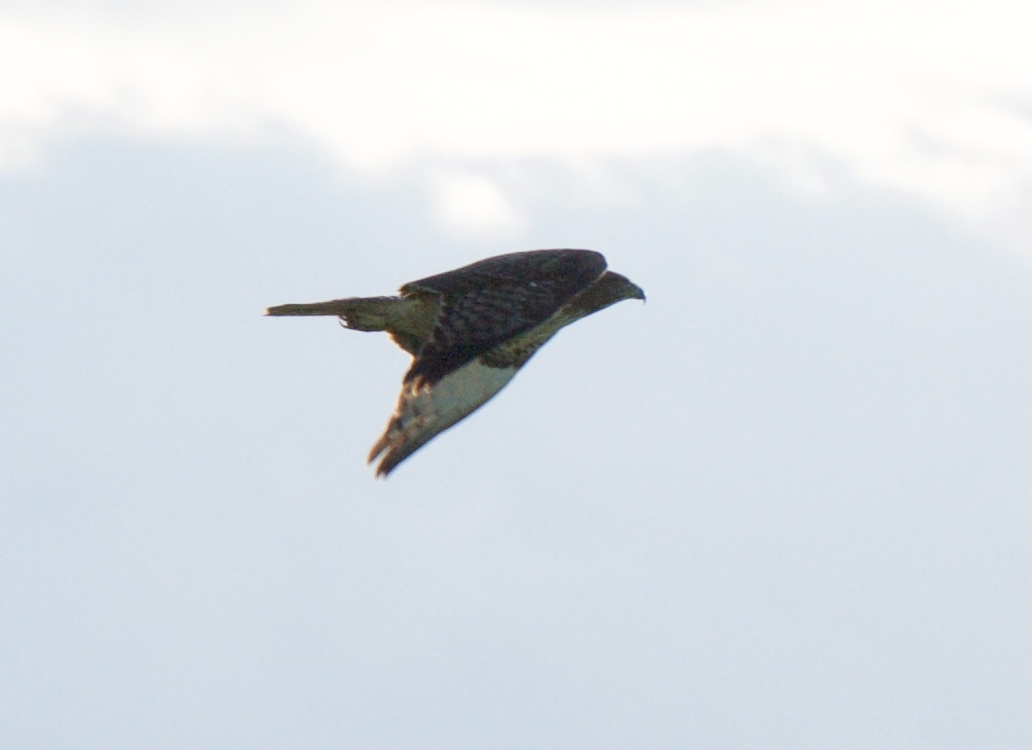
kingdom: Animalia
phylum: Chordata
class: Aves
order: Accipitriformes
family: Accipitridae
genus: Buteo
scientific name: Buteo jamaicensis
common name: Red-tailed hawk
